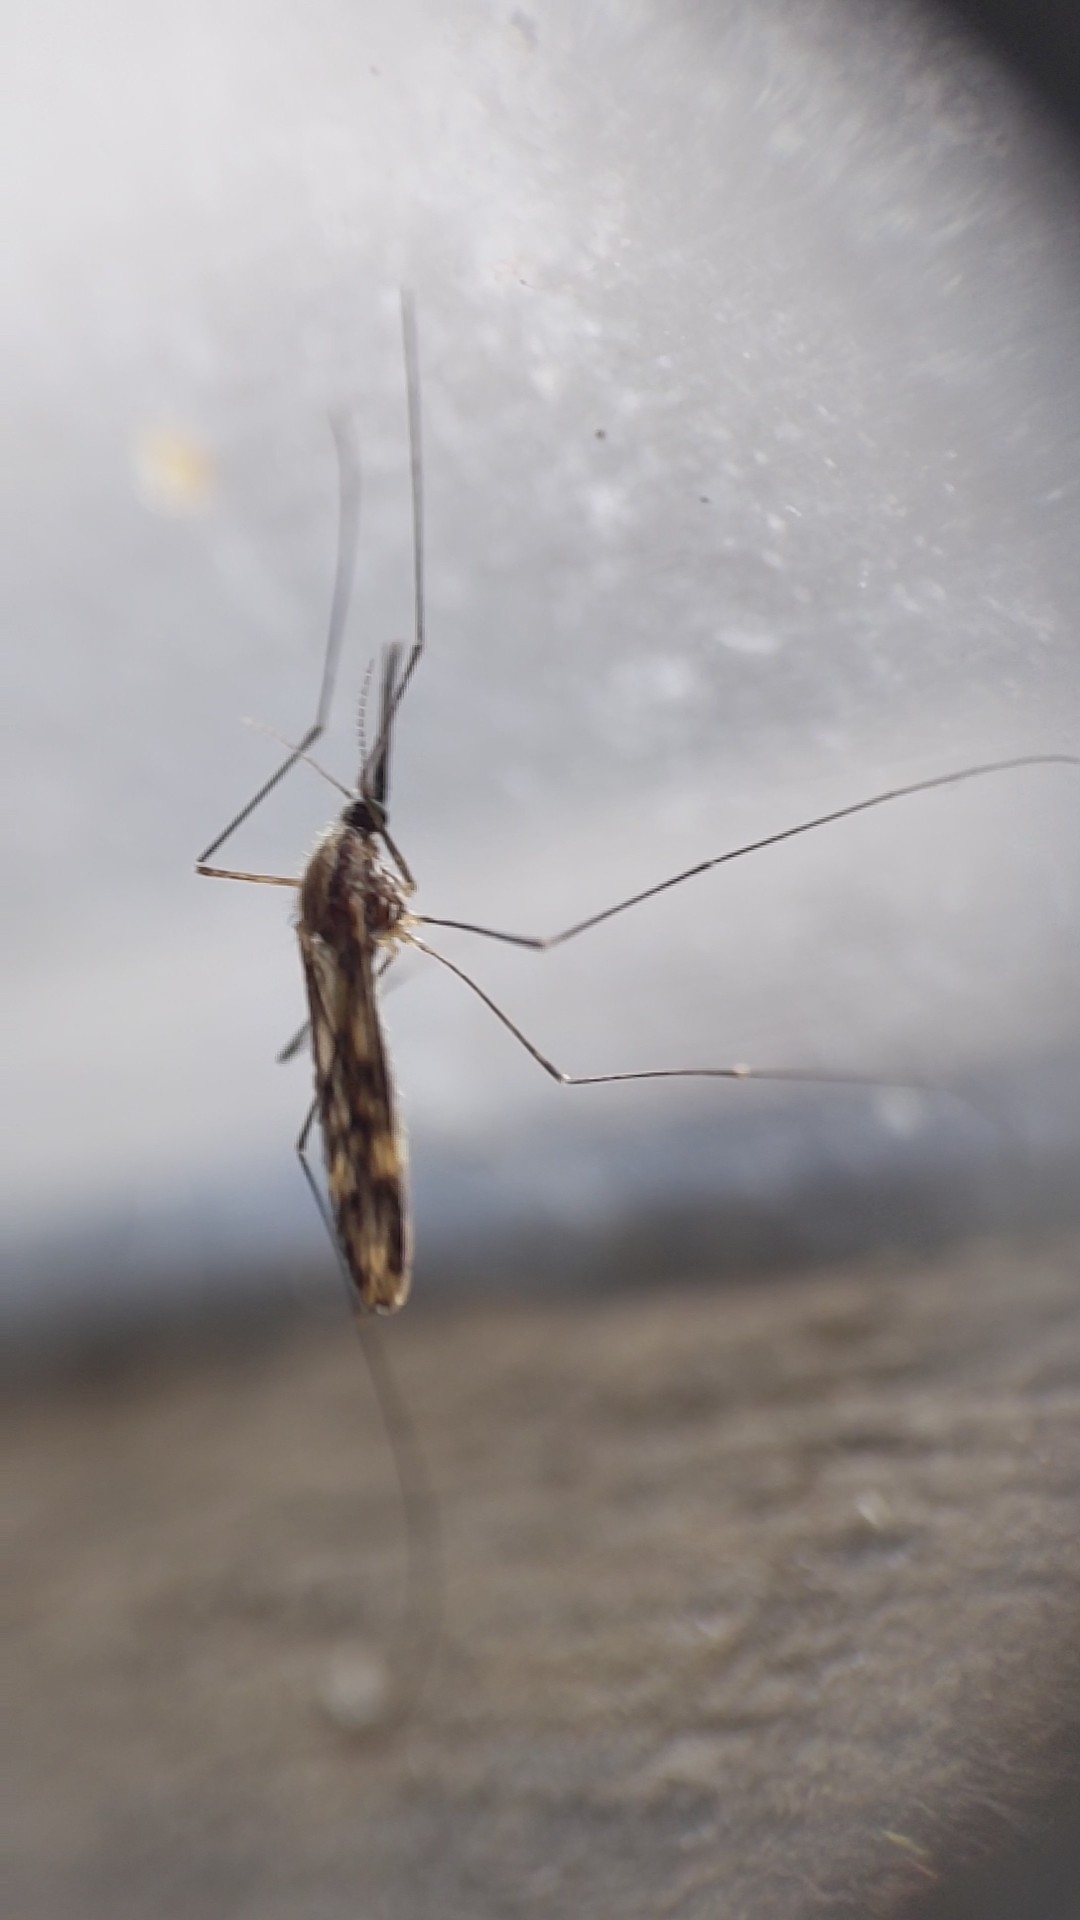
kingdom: Animalia
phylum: Arthropoda
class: Insecta
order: Diptera
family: Culicidae
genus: Anopheles
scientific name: Anopheles punctipennis
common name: Woodland malaria mosquito
